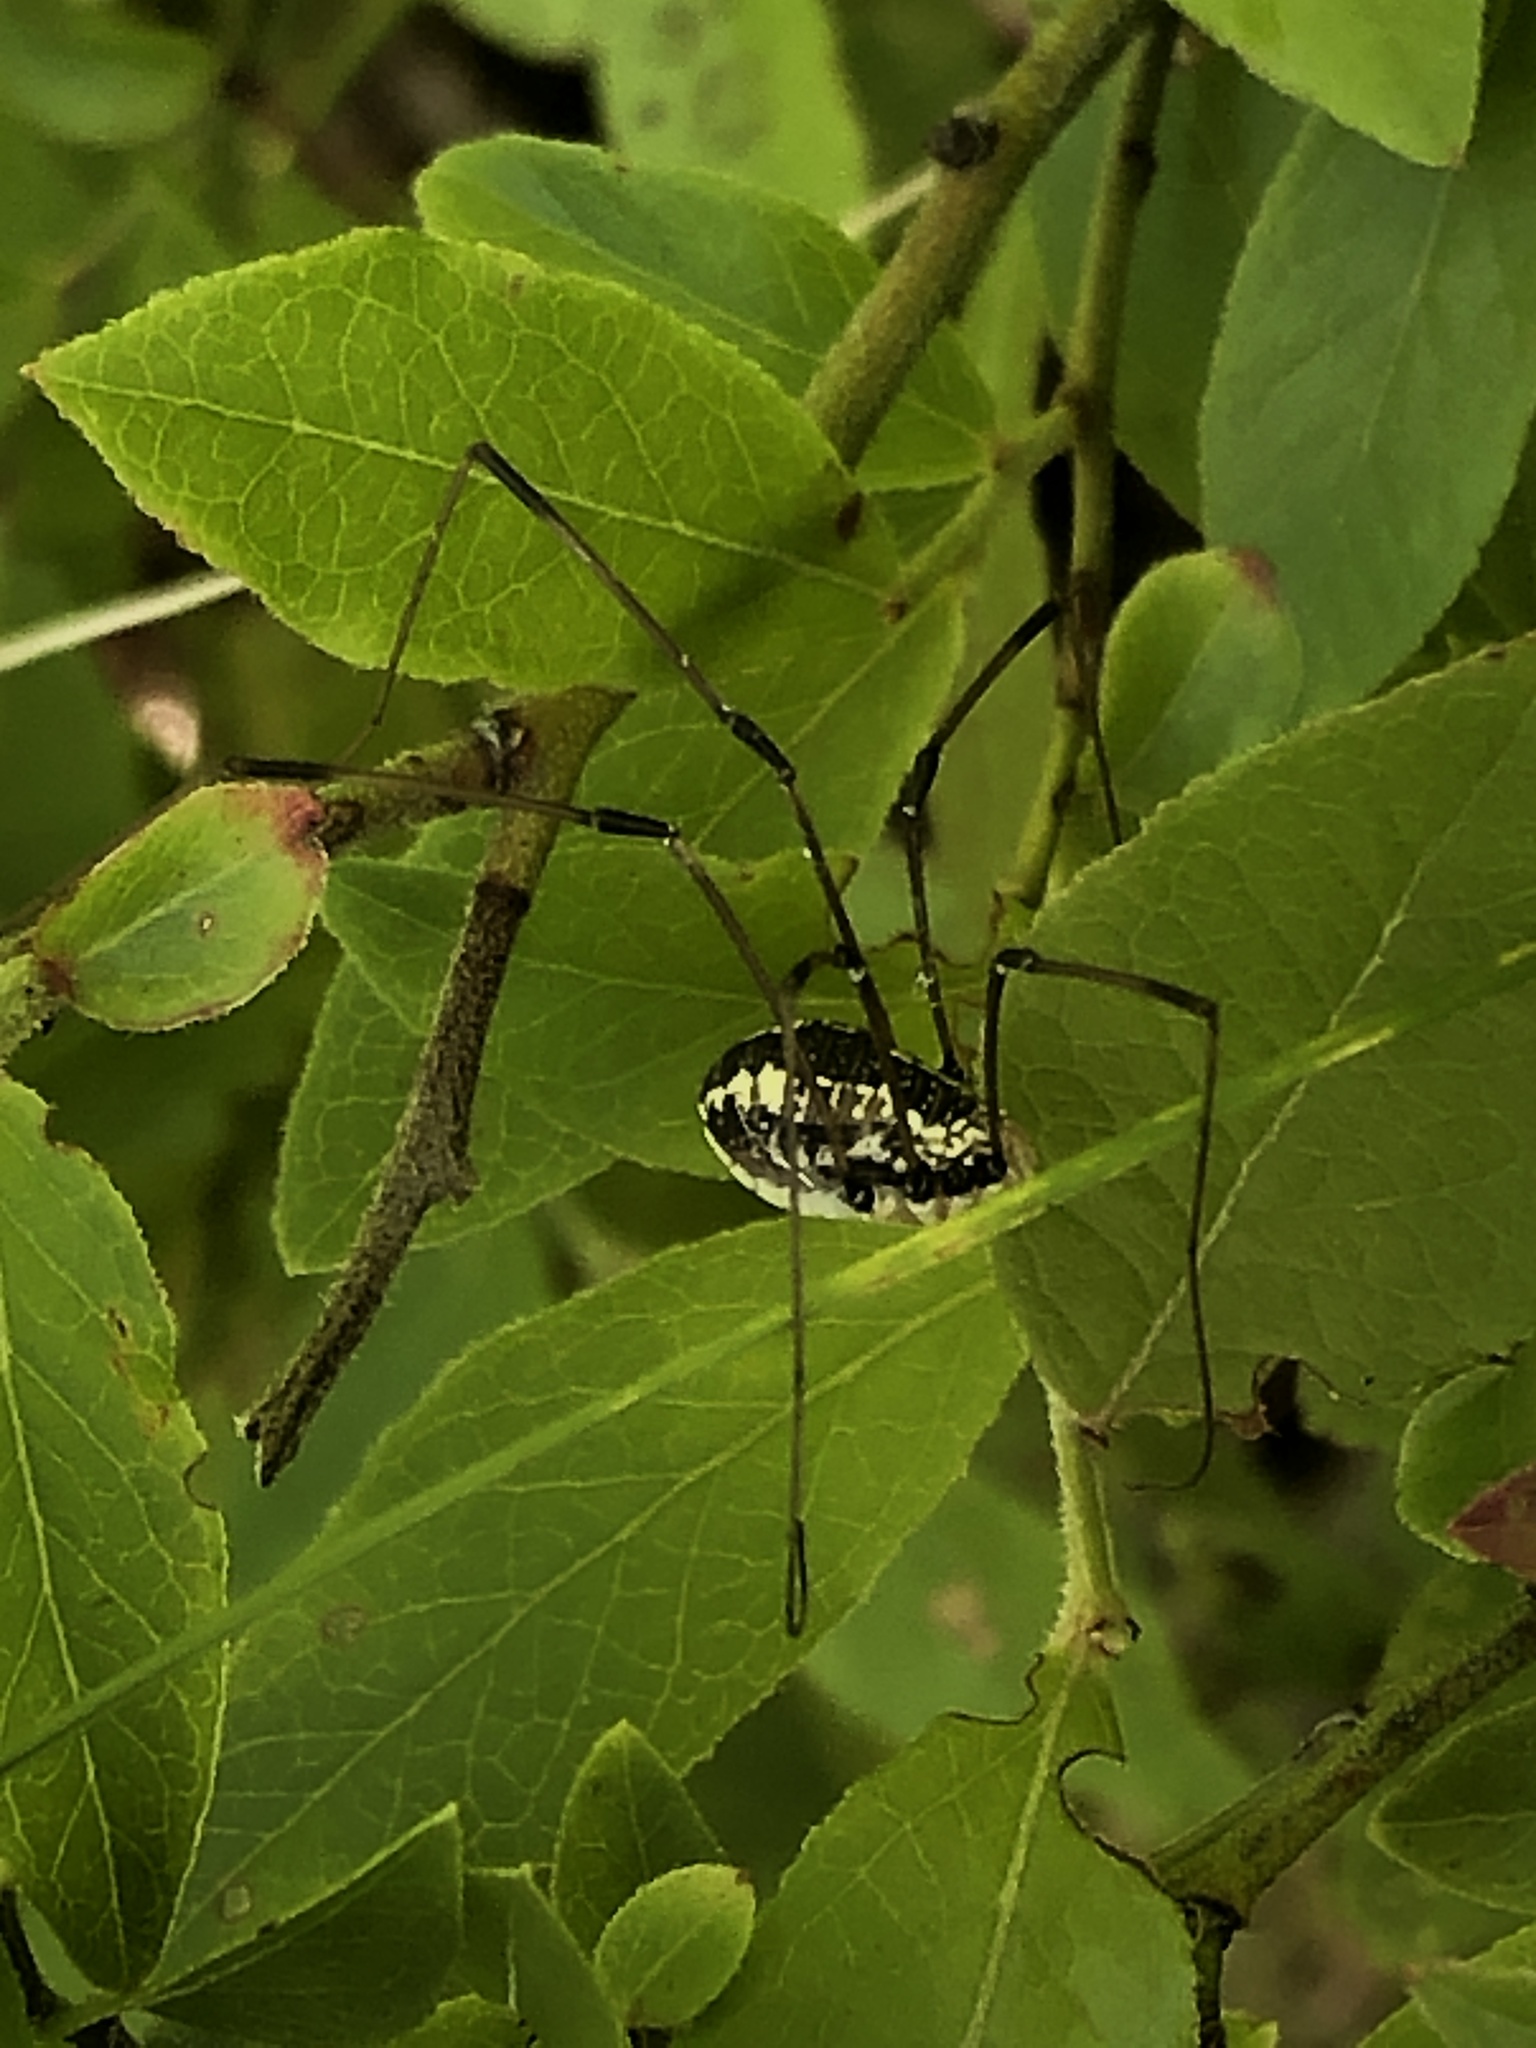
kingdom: Animalia
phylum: Arthropoda
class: Arachnida
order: Opiliones
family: Sclerosomatidae
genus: Leiobunum
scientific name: Leiobunum vittatum
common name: Eastern harvestman
